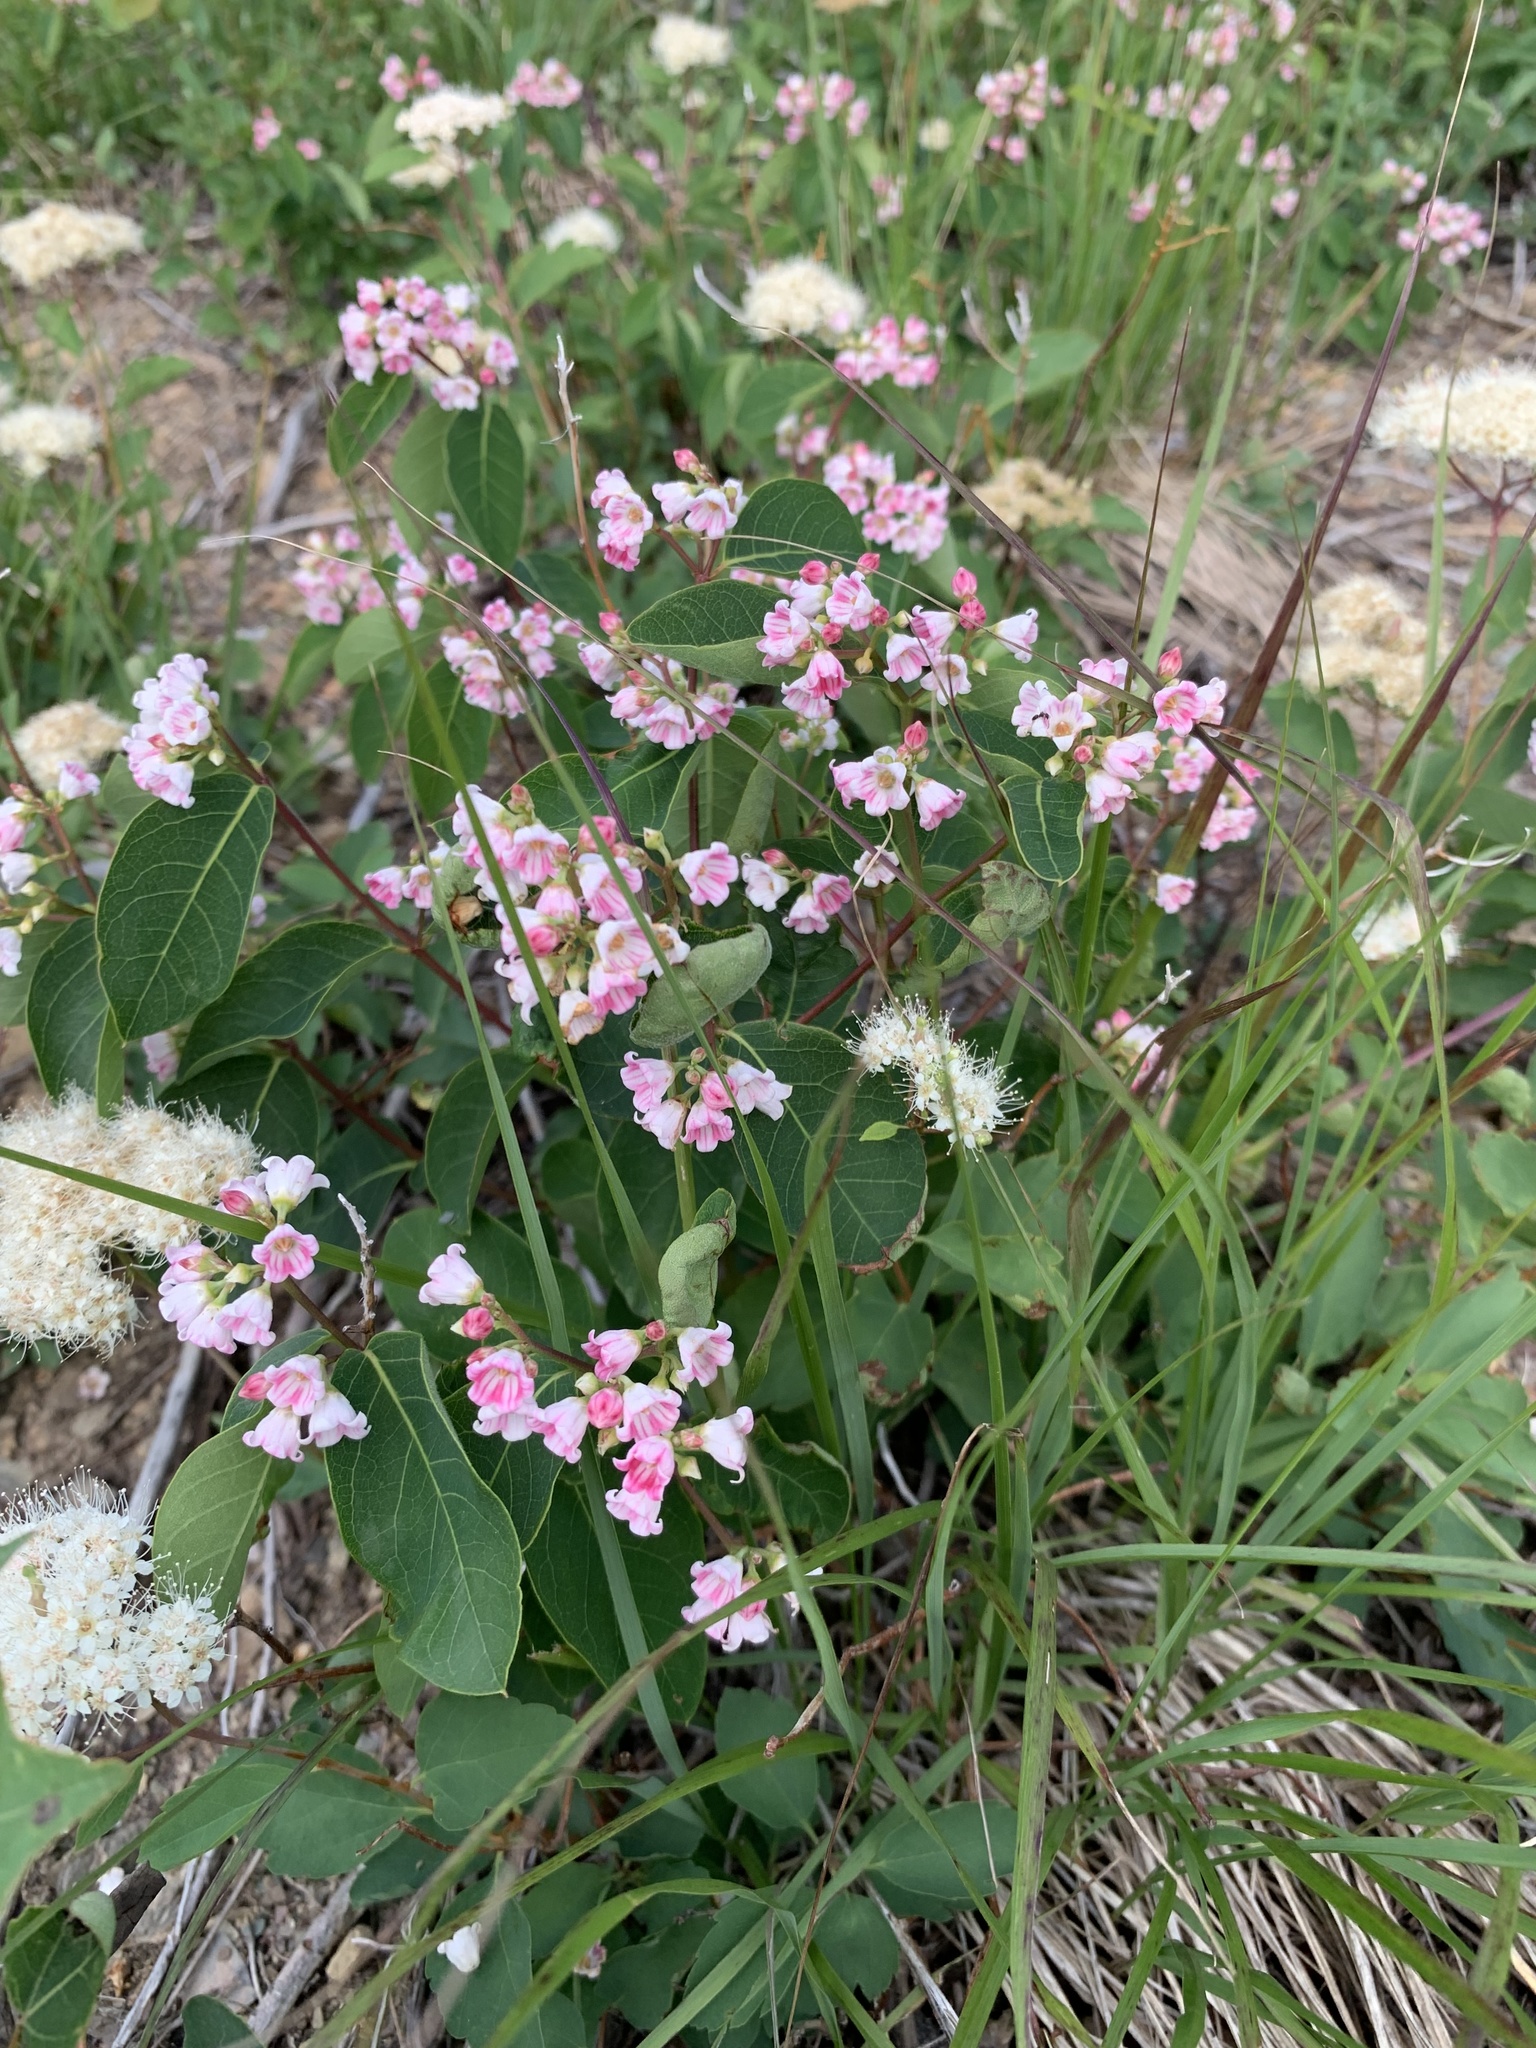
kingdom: Plantae
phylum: Tracheophyta
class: Magnoliopsida
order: Gentianales
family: Apocynaceae
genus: Apocynum
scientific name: Apocynum androsaemifolium
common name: Spreading dogbane
